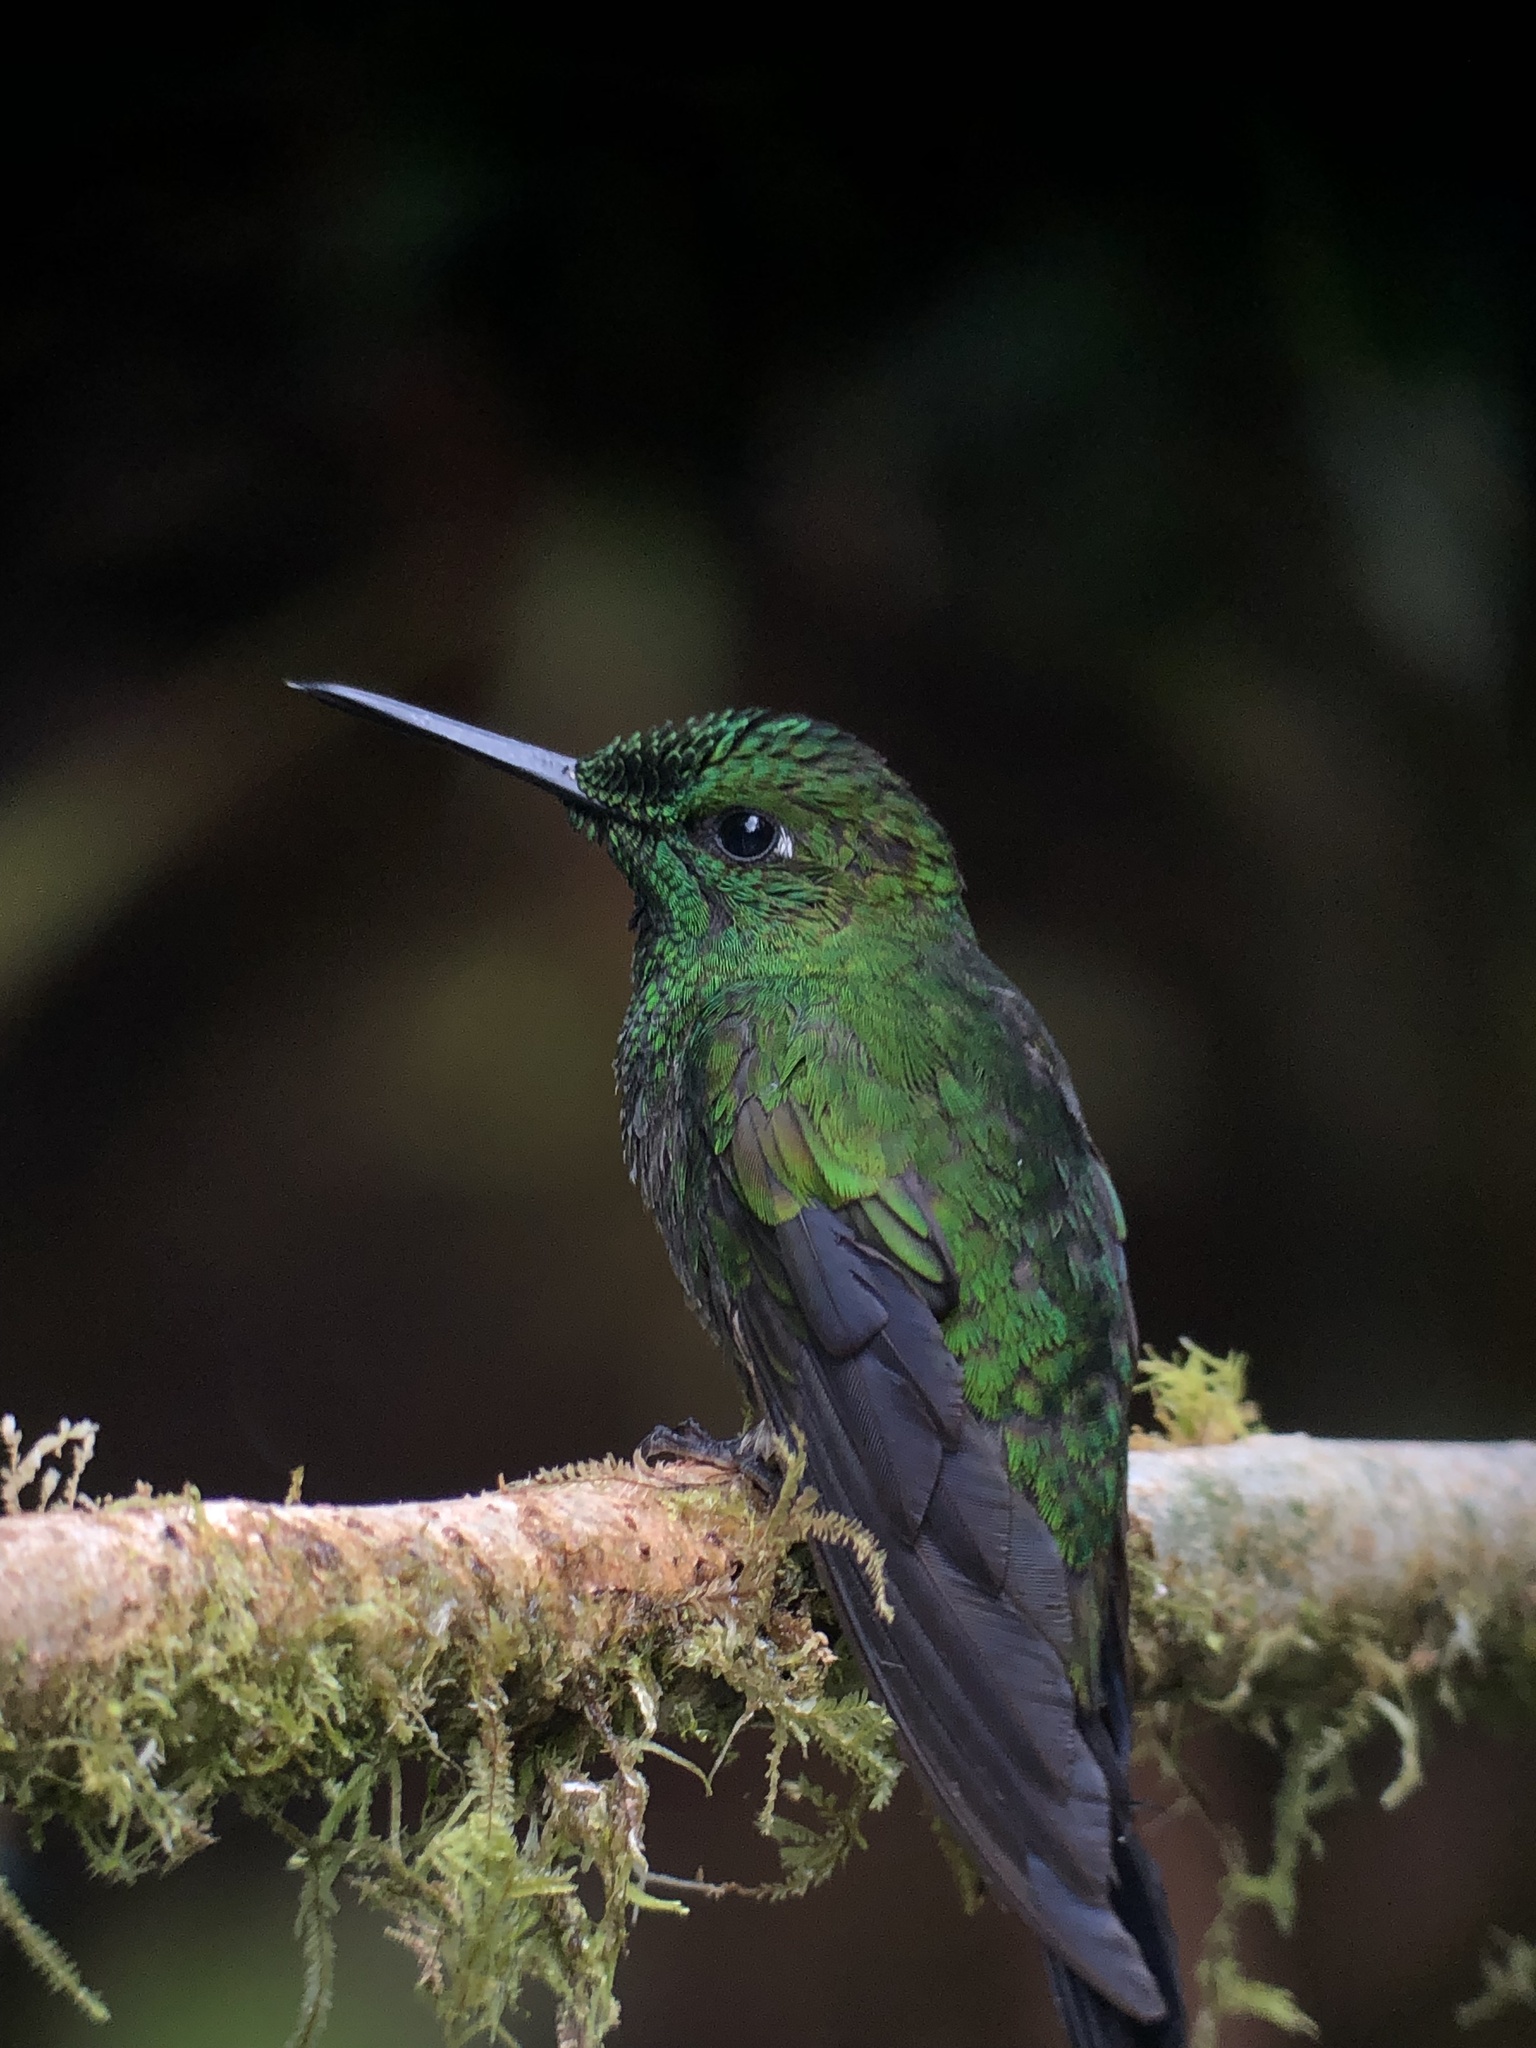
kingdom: Animalia
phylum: Chordata
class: Aves
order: Apodiformes
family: Trochilidae
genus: Heliodoxa
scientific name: Heliodoxa jacula
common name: Green-crowned brilliant
